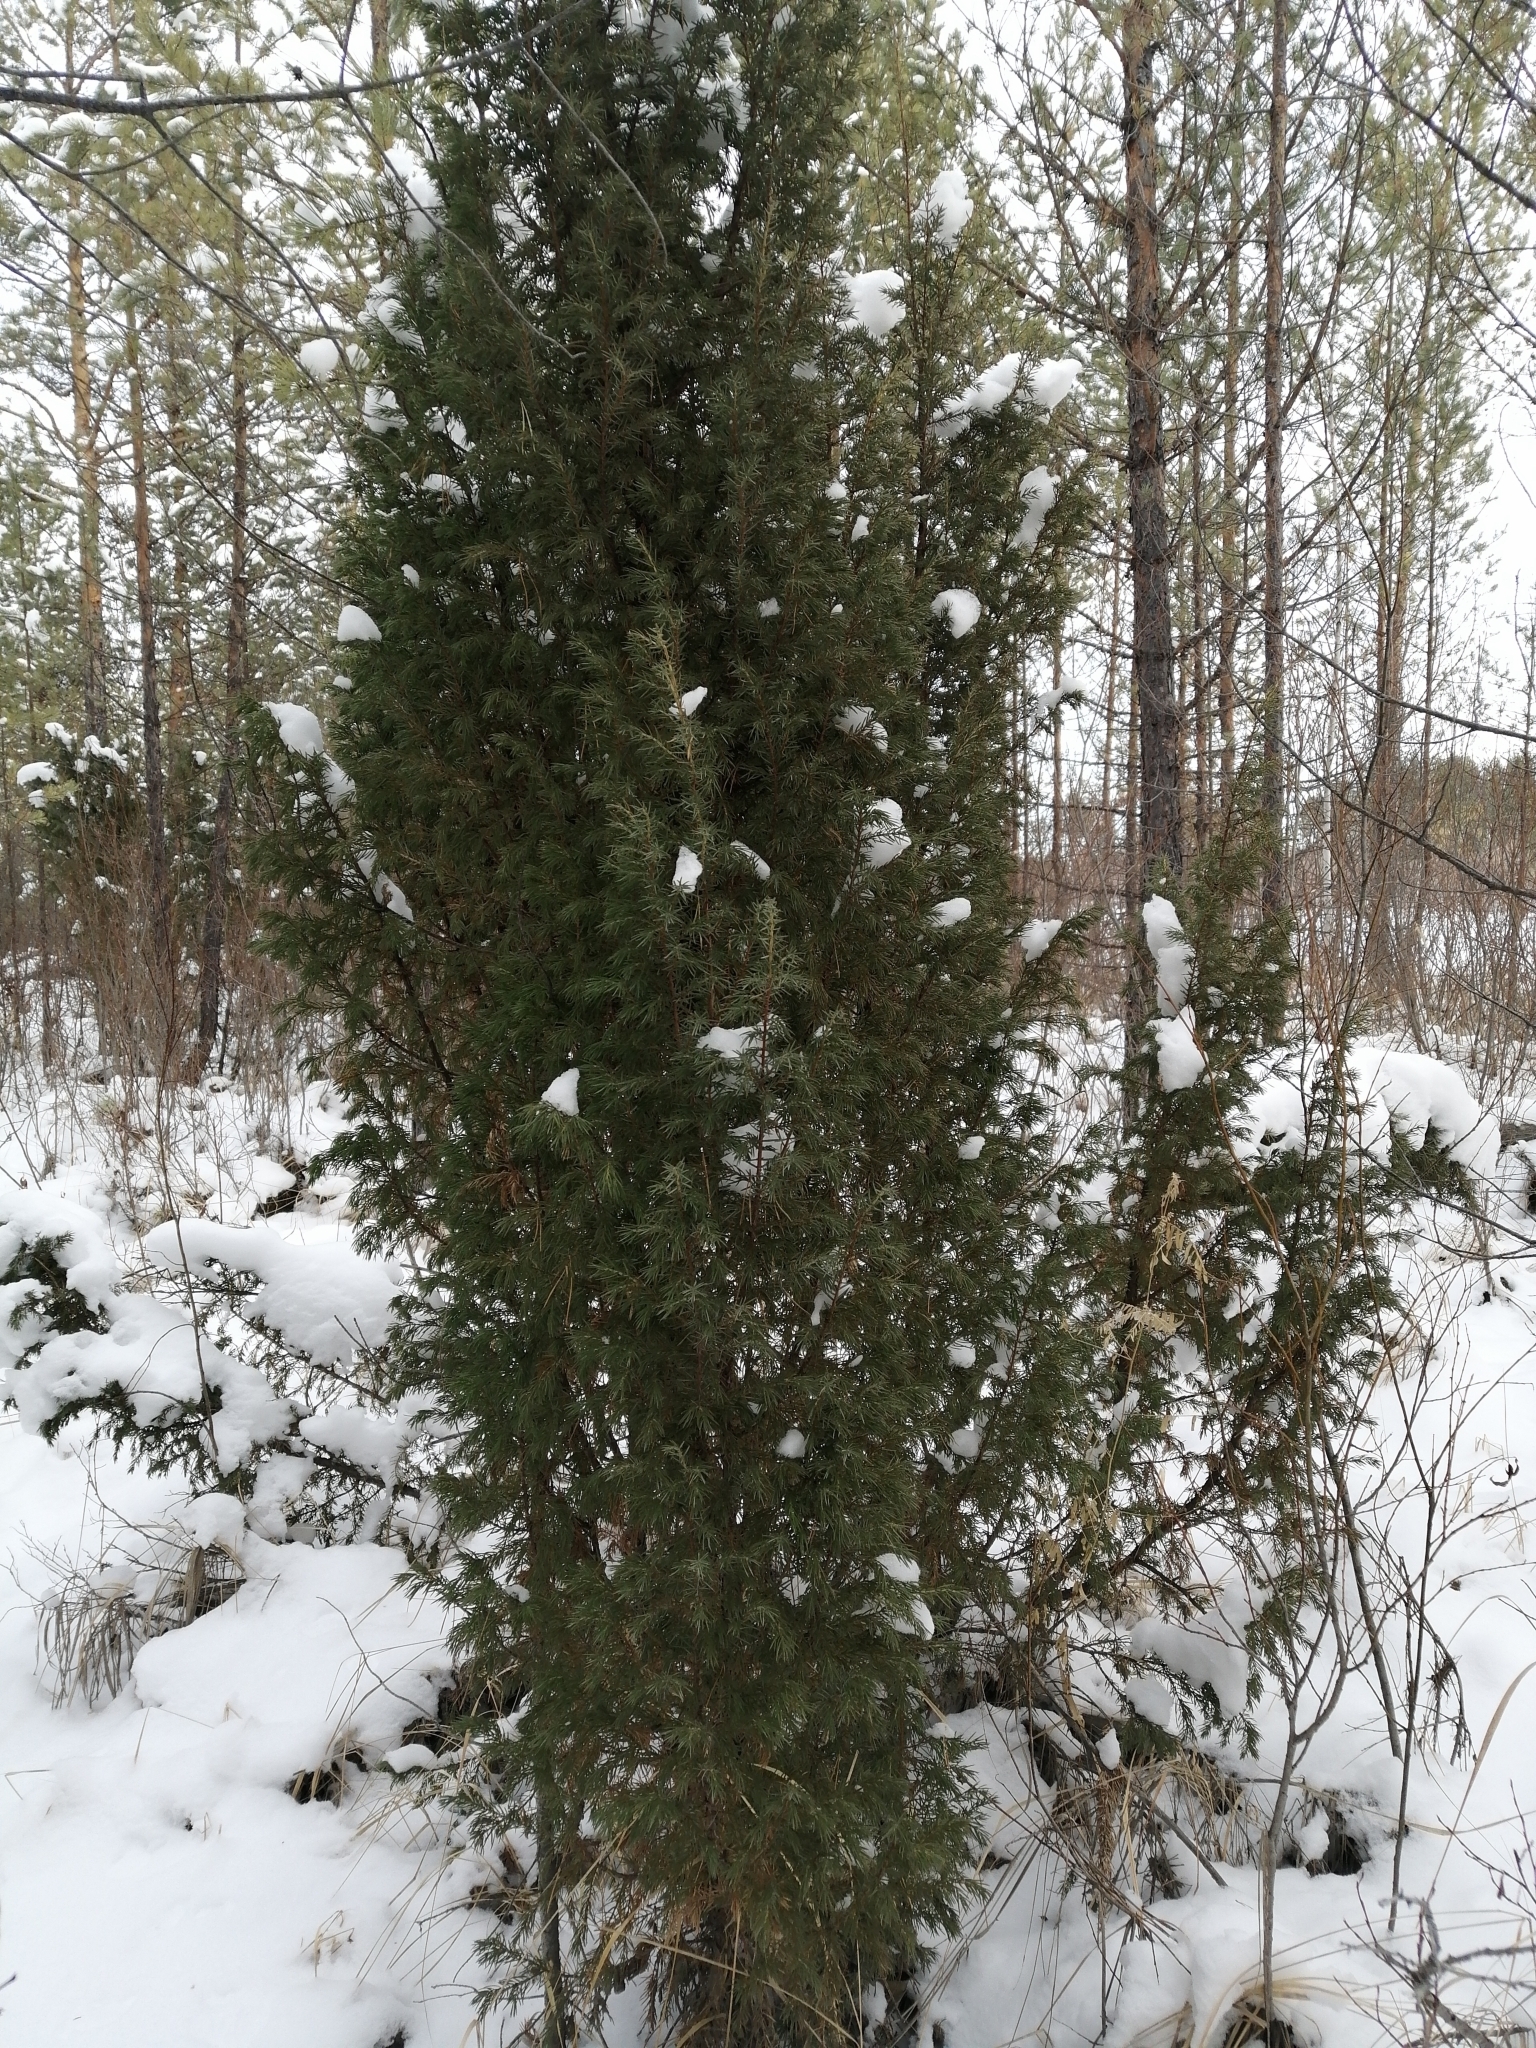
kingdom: Plantae
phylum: Tracheophyta
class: Pinopsida
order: Pinales
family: Cupressaceae
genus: Juniperus
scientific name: Juniperus communis
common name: Common juniper
